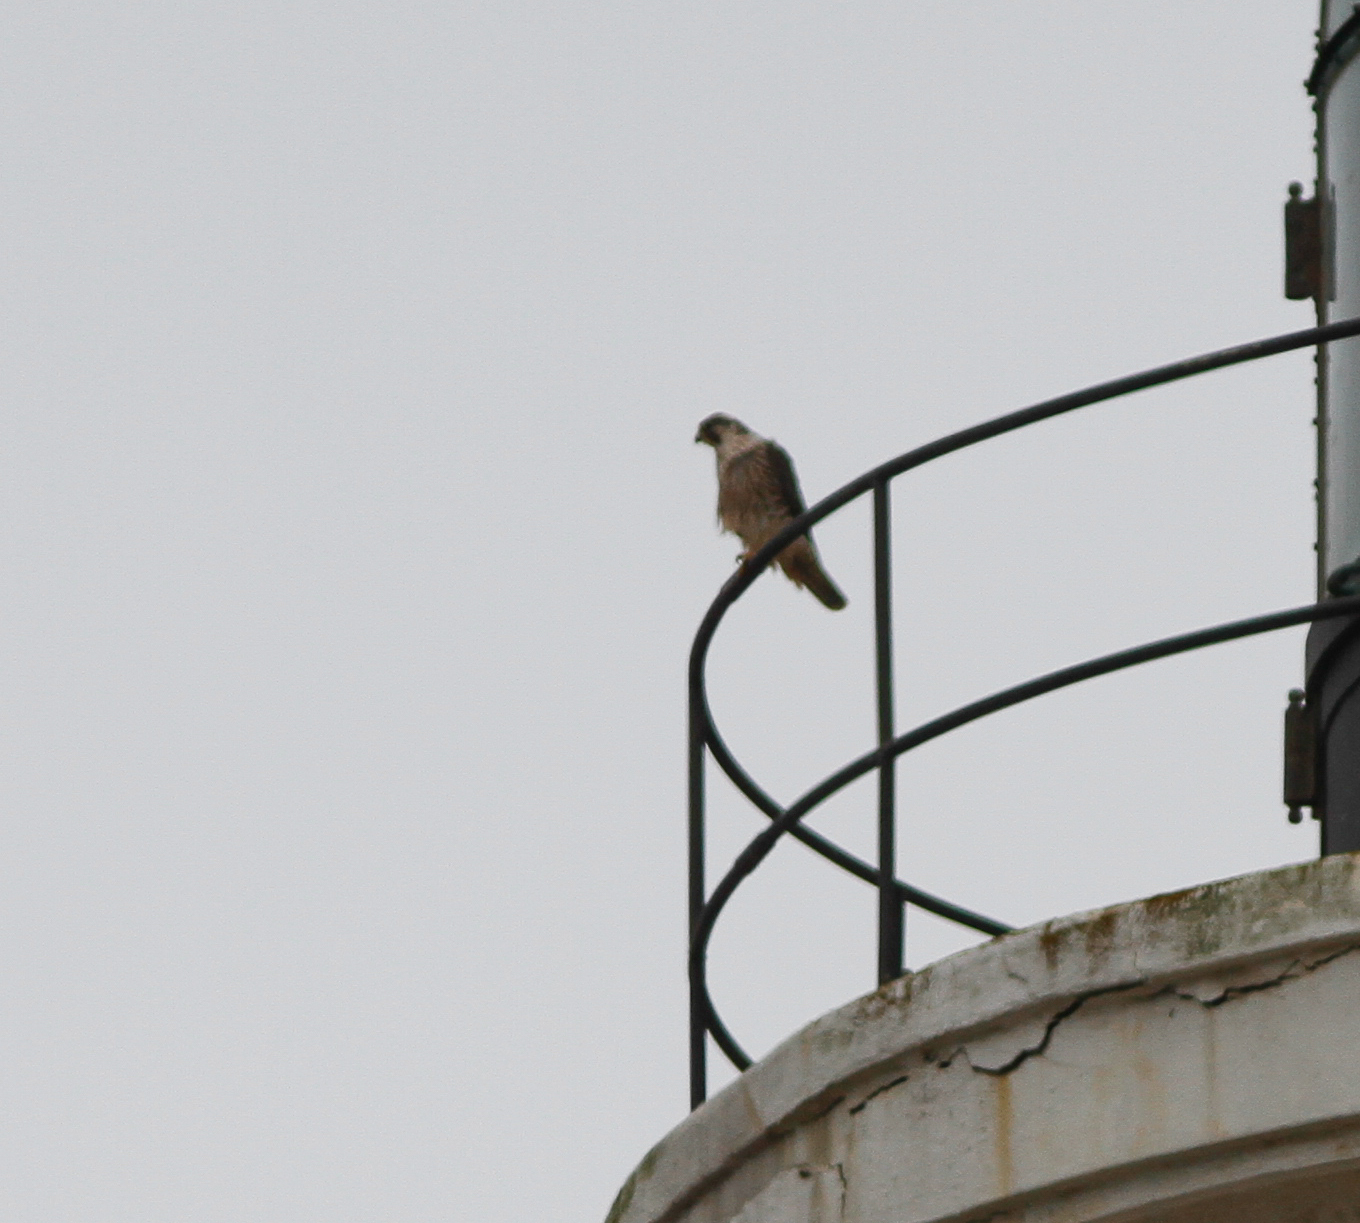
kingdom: Animalia
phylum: Chordata
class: Aves
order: Falconiformes
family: Falconidae
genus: Falco
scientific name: Falco peregrinus
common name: Peregrine falcon
